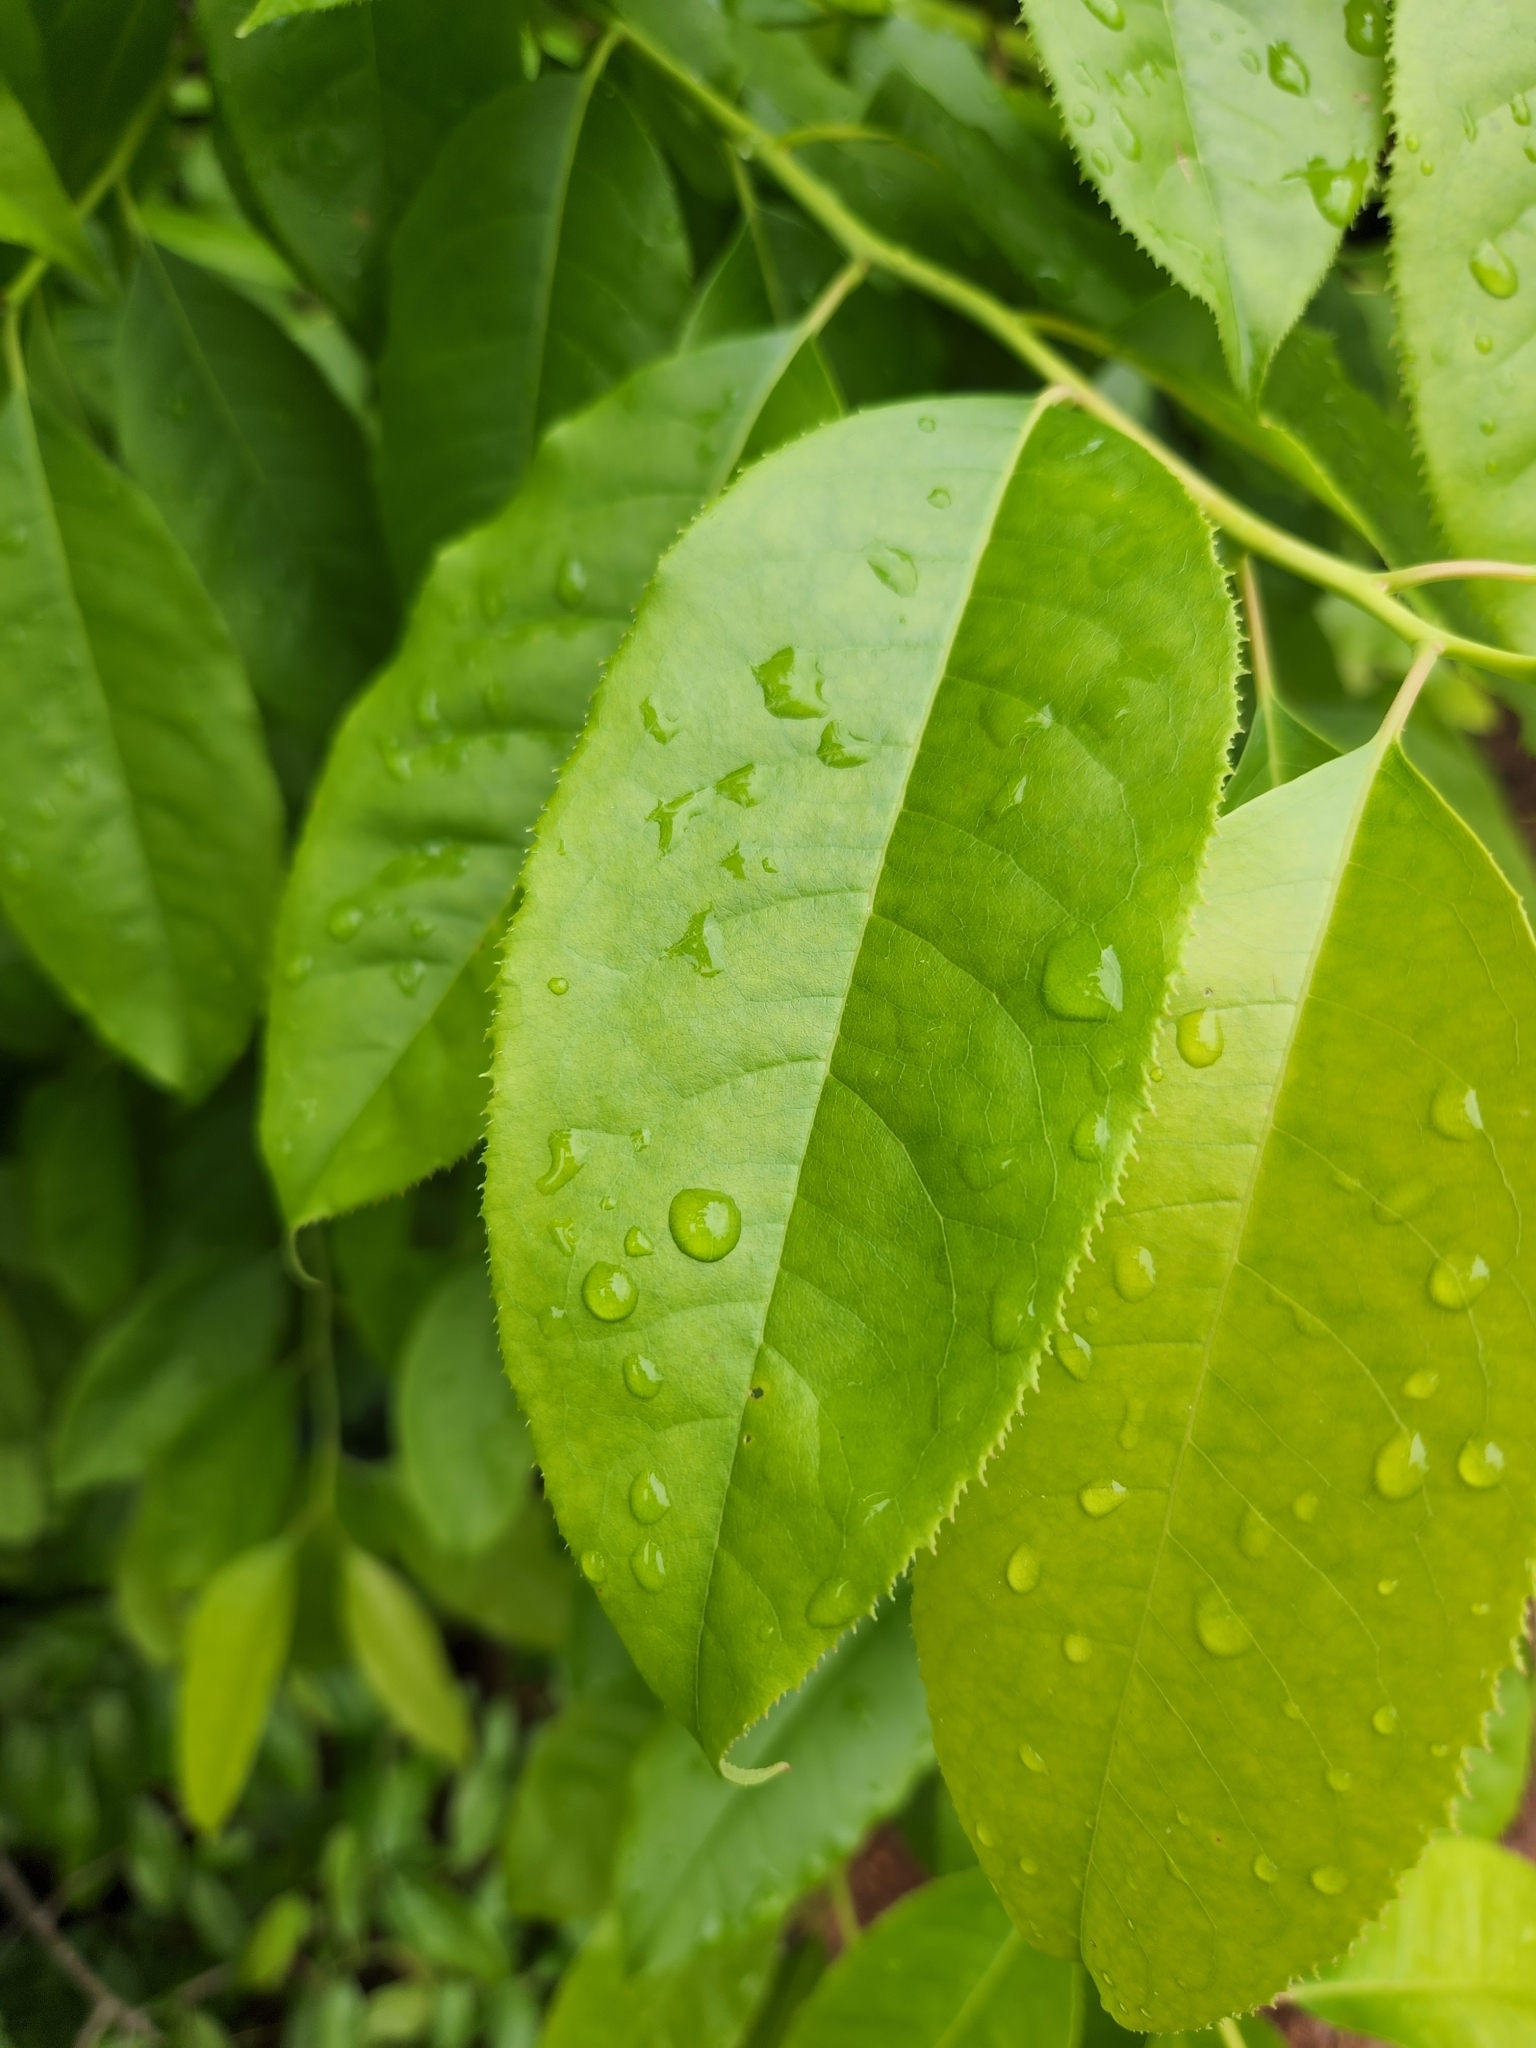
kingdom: Plantae
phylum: Tracheophyta
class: Magnoliopsida
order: Ericales
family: Ericaceae
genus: Oxydendrum
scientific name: Oxydendrum arboreum
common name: Sourwood
